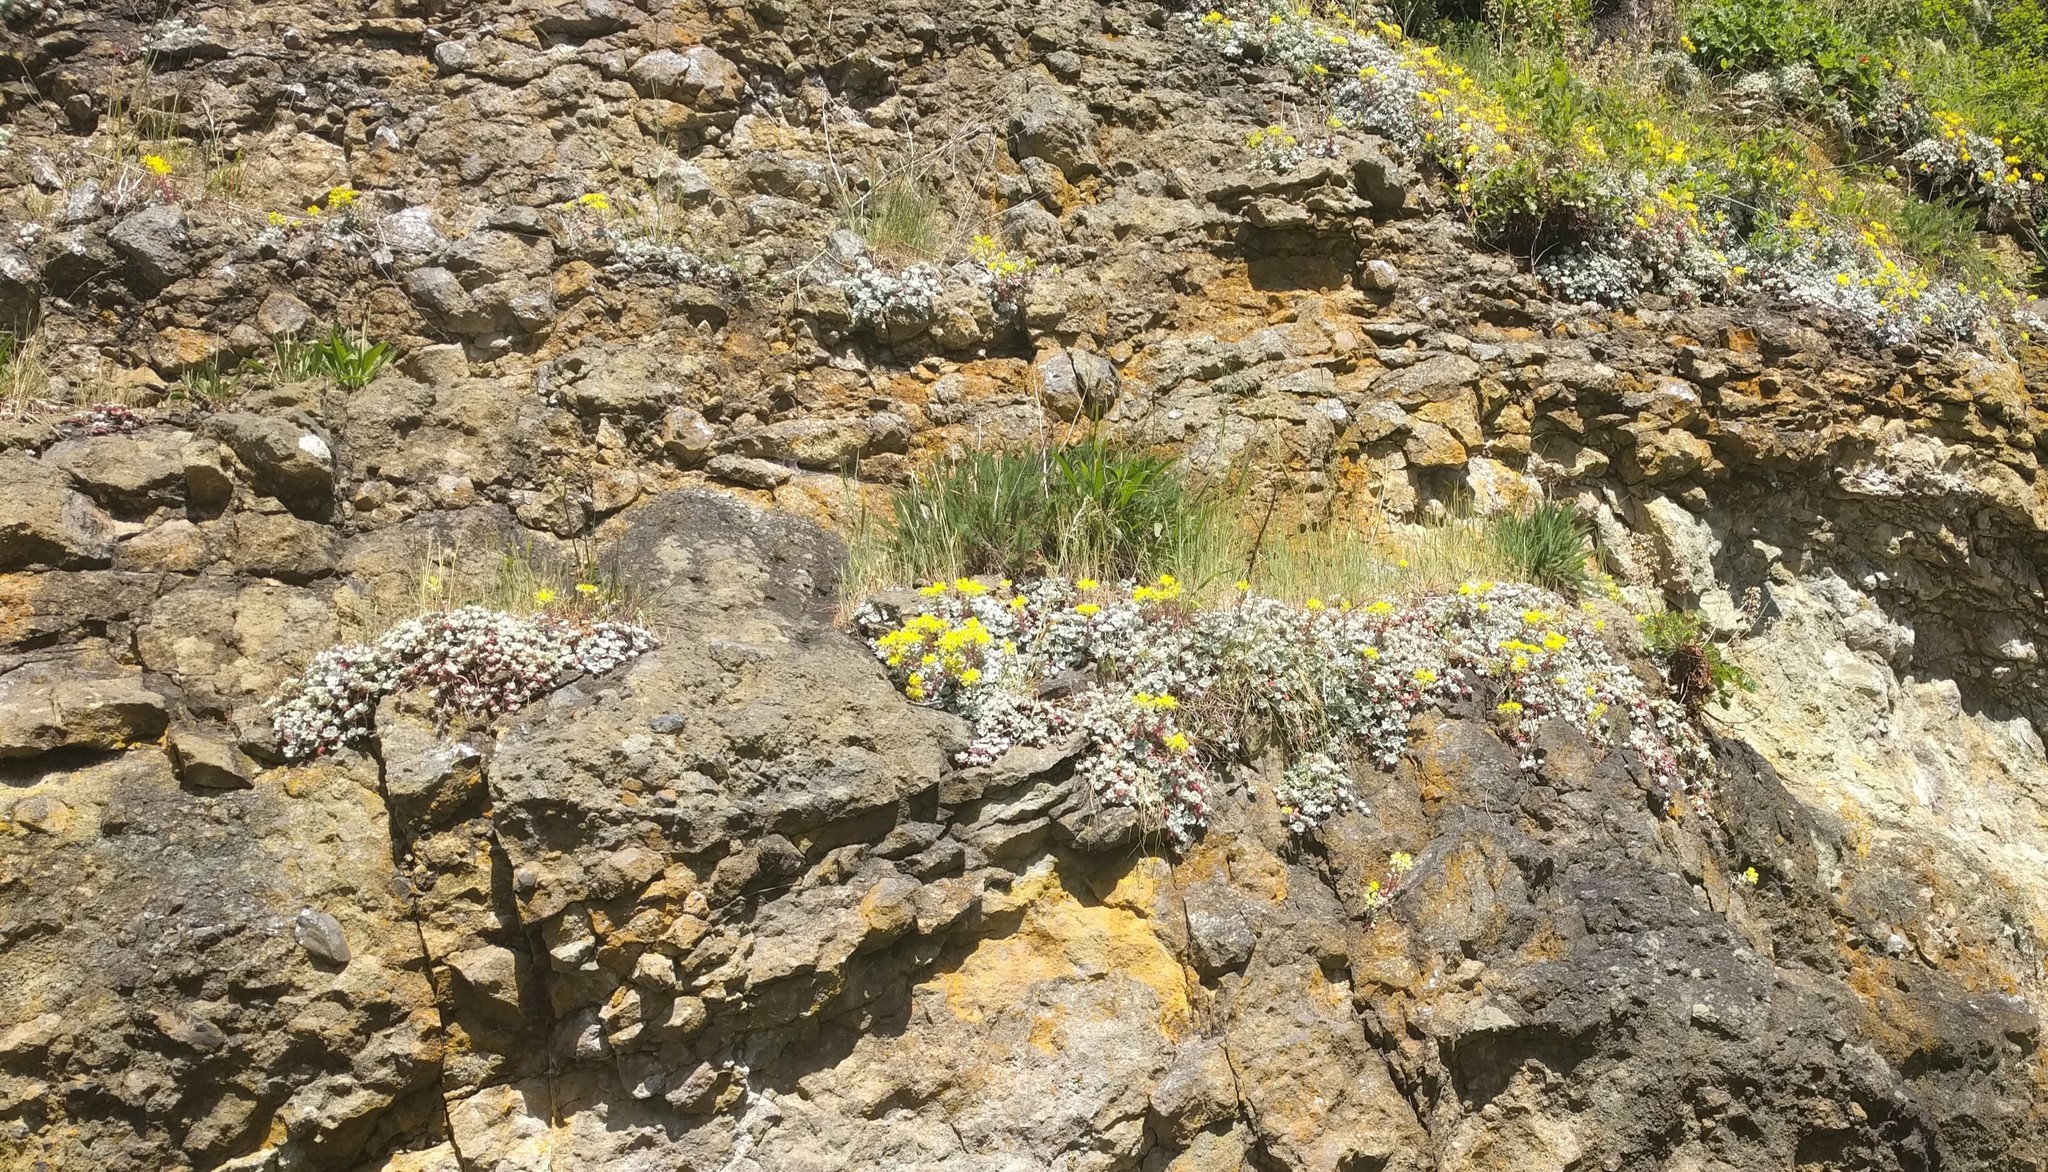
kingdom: Plantae
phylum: Tracheophyta
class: Magnoliopsida
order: Saxifragales
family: Crassulaceae
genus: Sedum
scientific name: Sedum spathulifolium
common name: Colorado stonecrop
